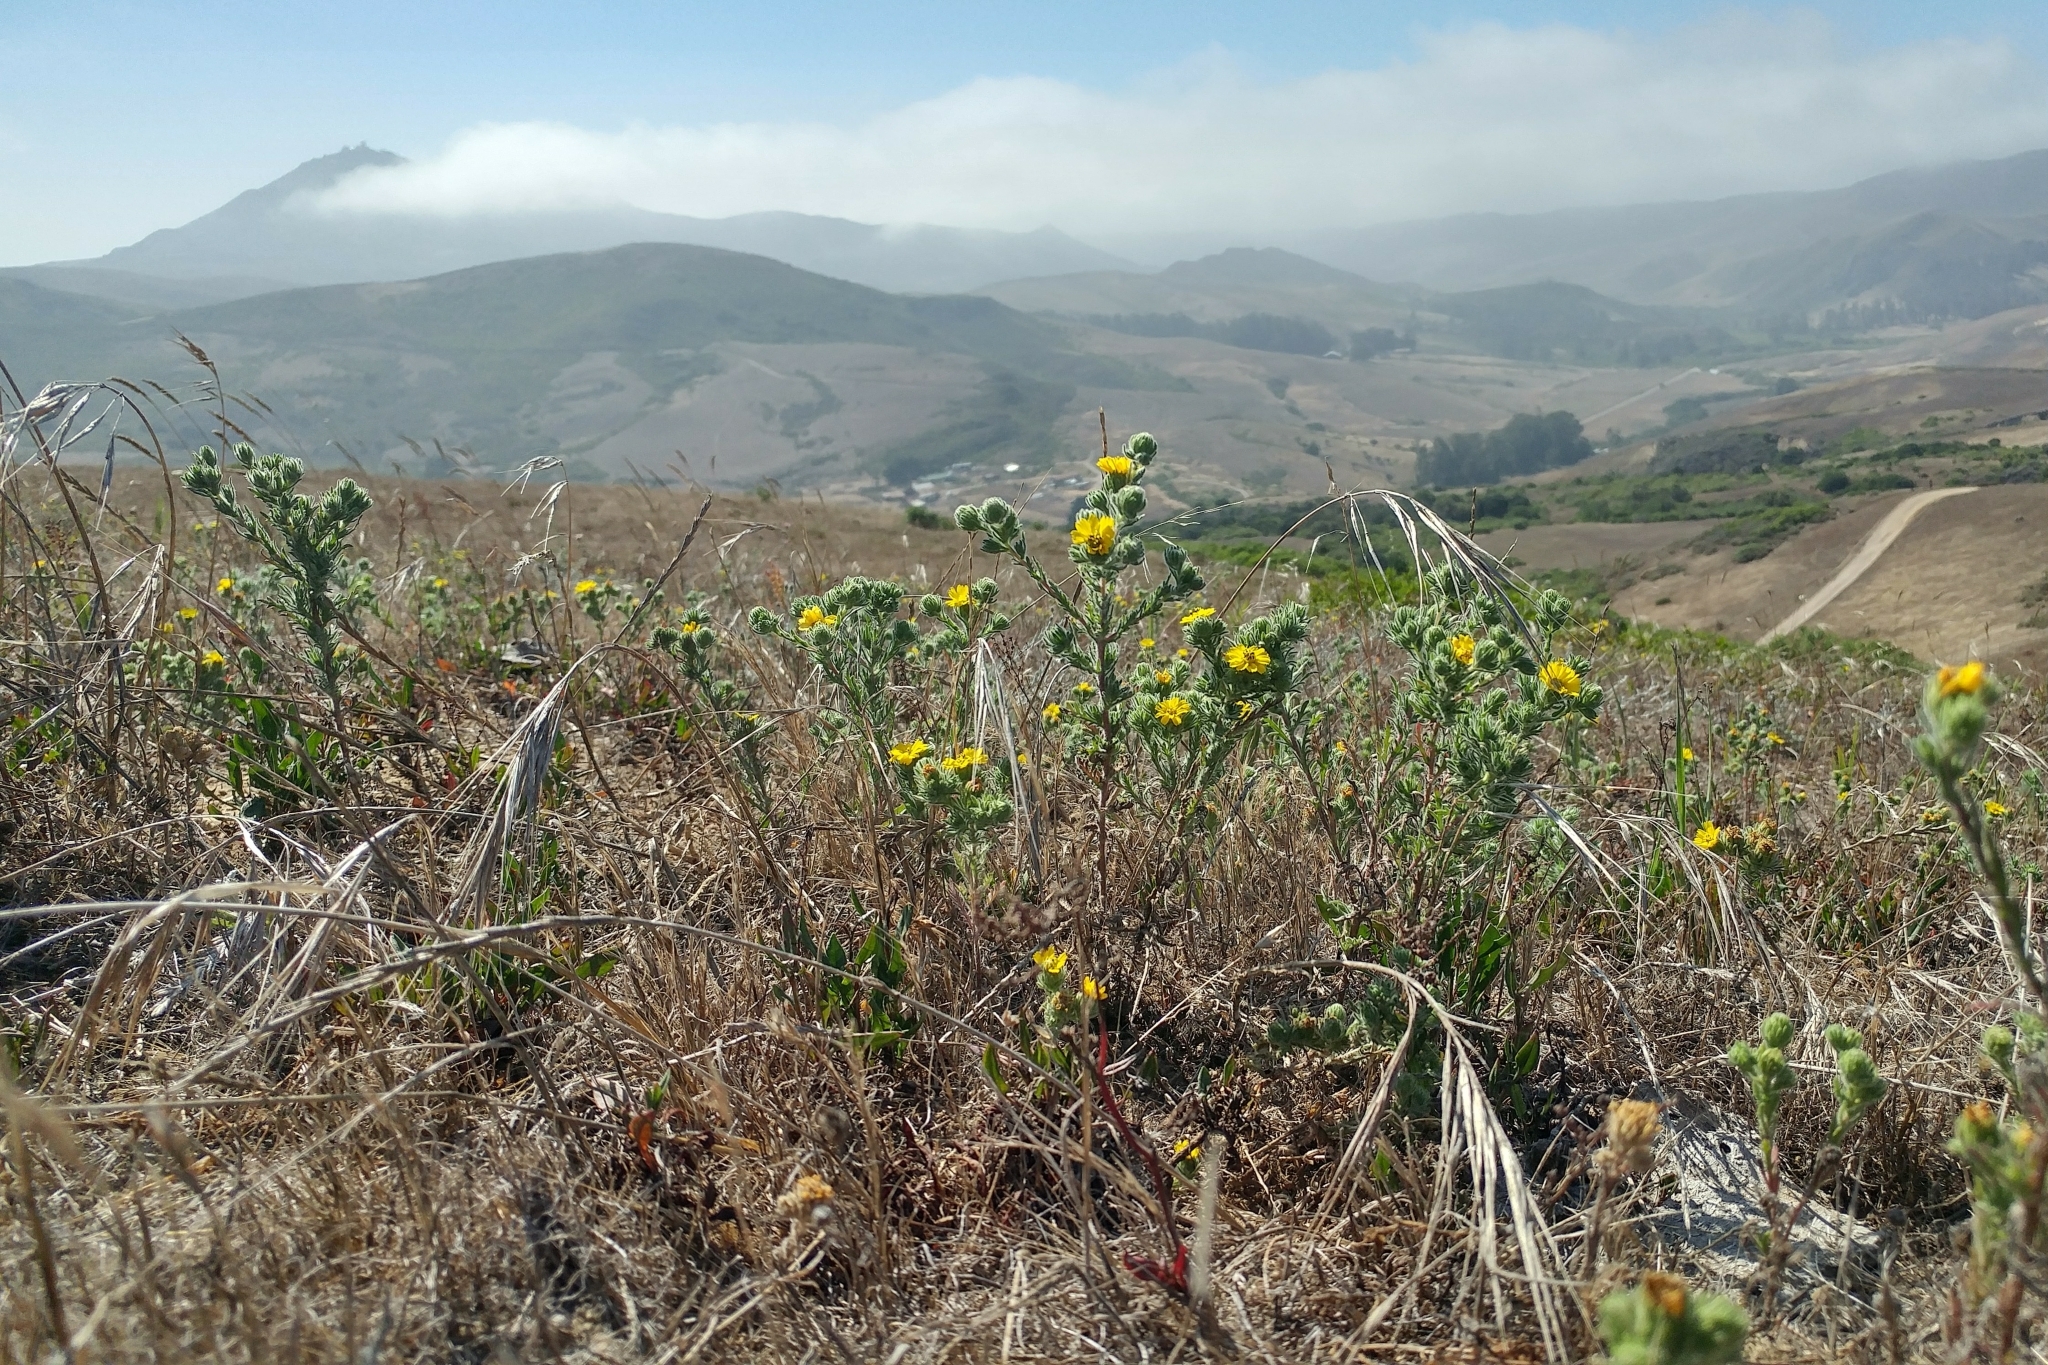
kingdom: Plantae
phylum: Tracheophyta
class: Magnoliopsida
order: Asterales
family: Asteraceae
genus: Deinandra
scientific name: Deinandra increscens
